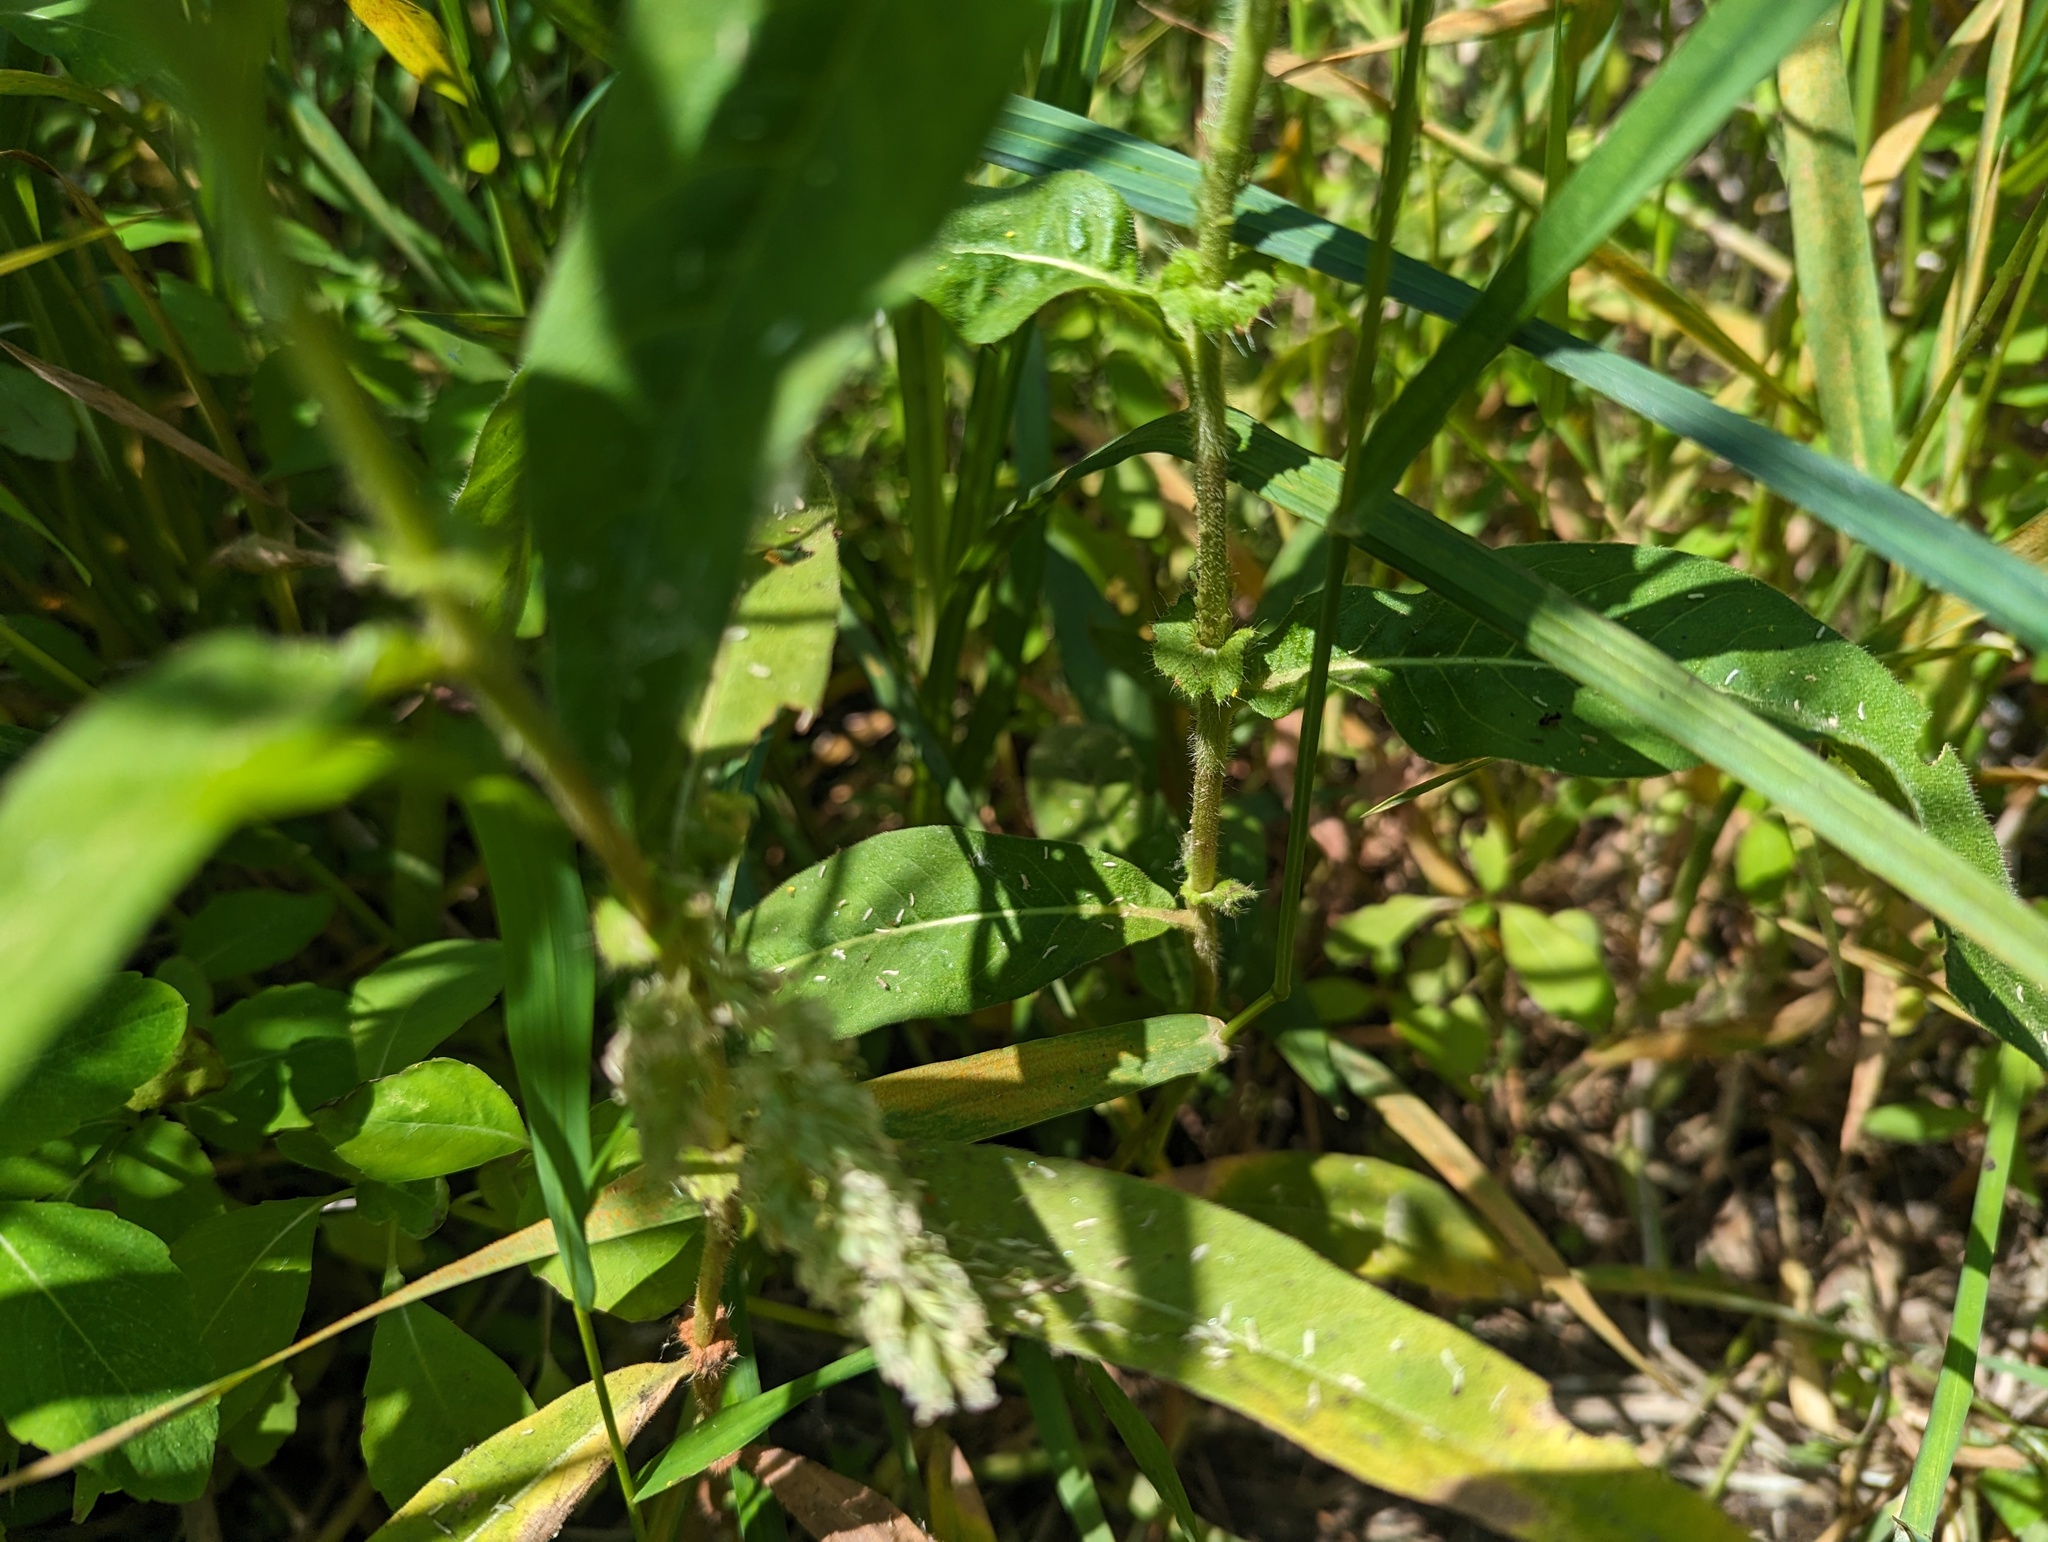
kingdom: Plantae
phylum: Tracheophyta
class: Magnoliopsida
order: Caryophyllales
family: Polygonaceae
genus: Persicaria
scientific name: Persicaria amphibia
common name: Amphibious bistort
